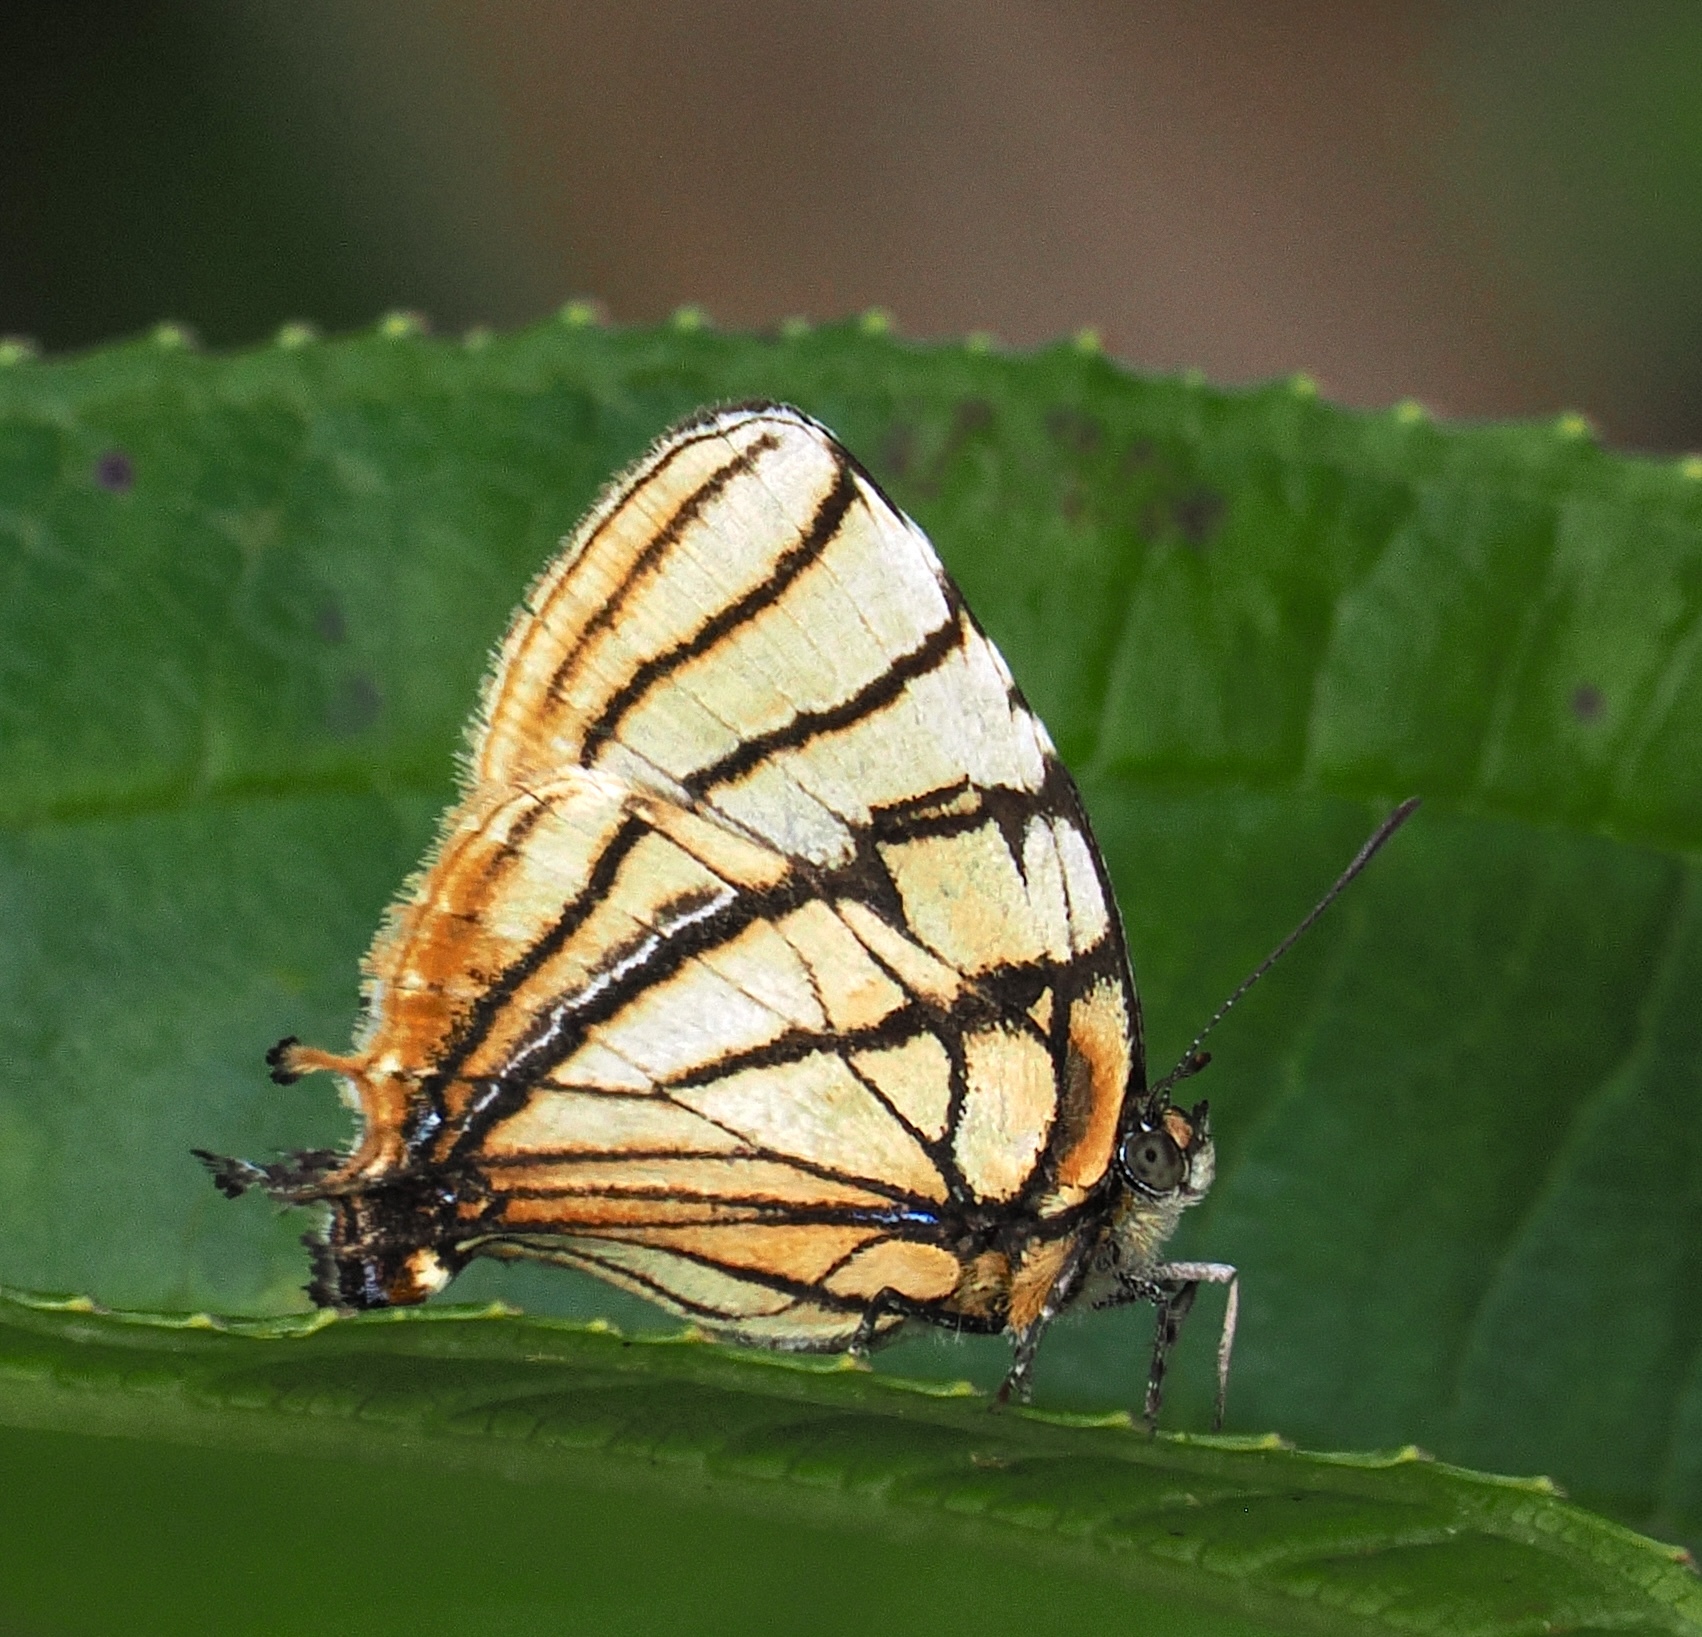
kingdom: Animalia
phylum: Arthropoda
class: Insecta
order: Lepidoptera
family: Lycaenidae
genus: Arawacus
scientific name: Arawacus melibaeus
